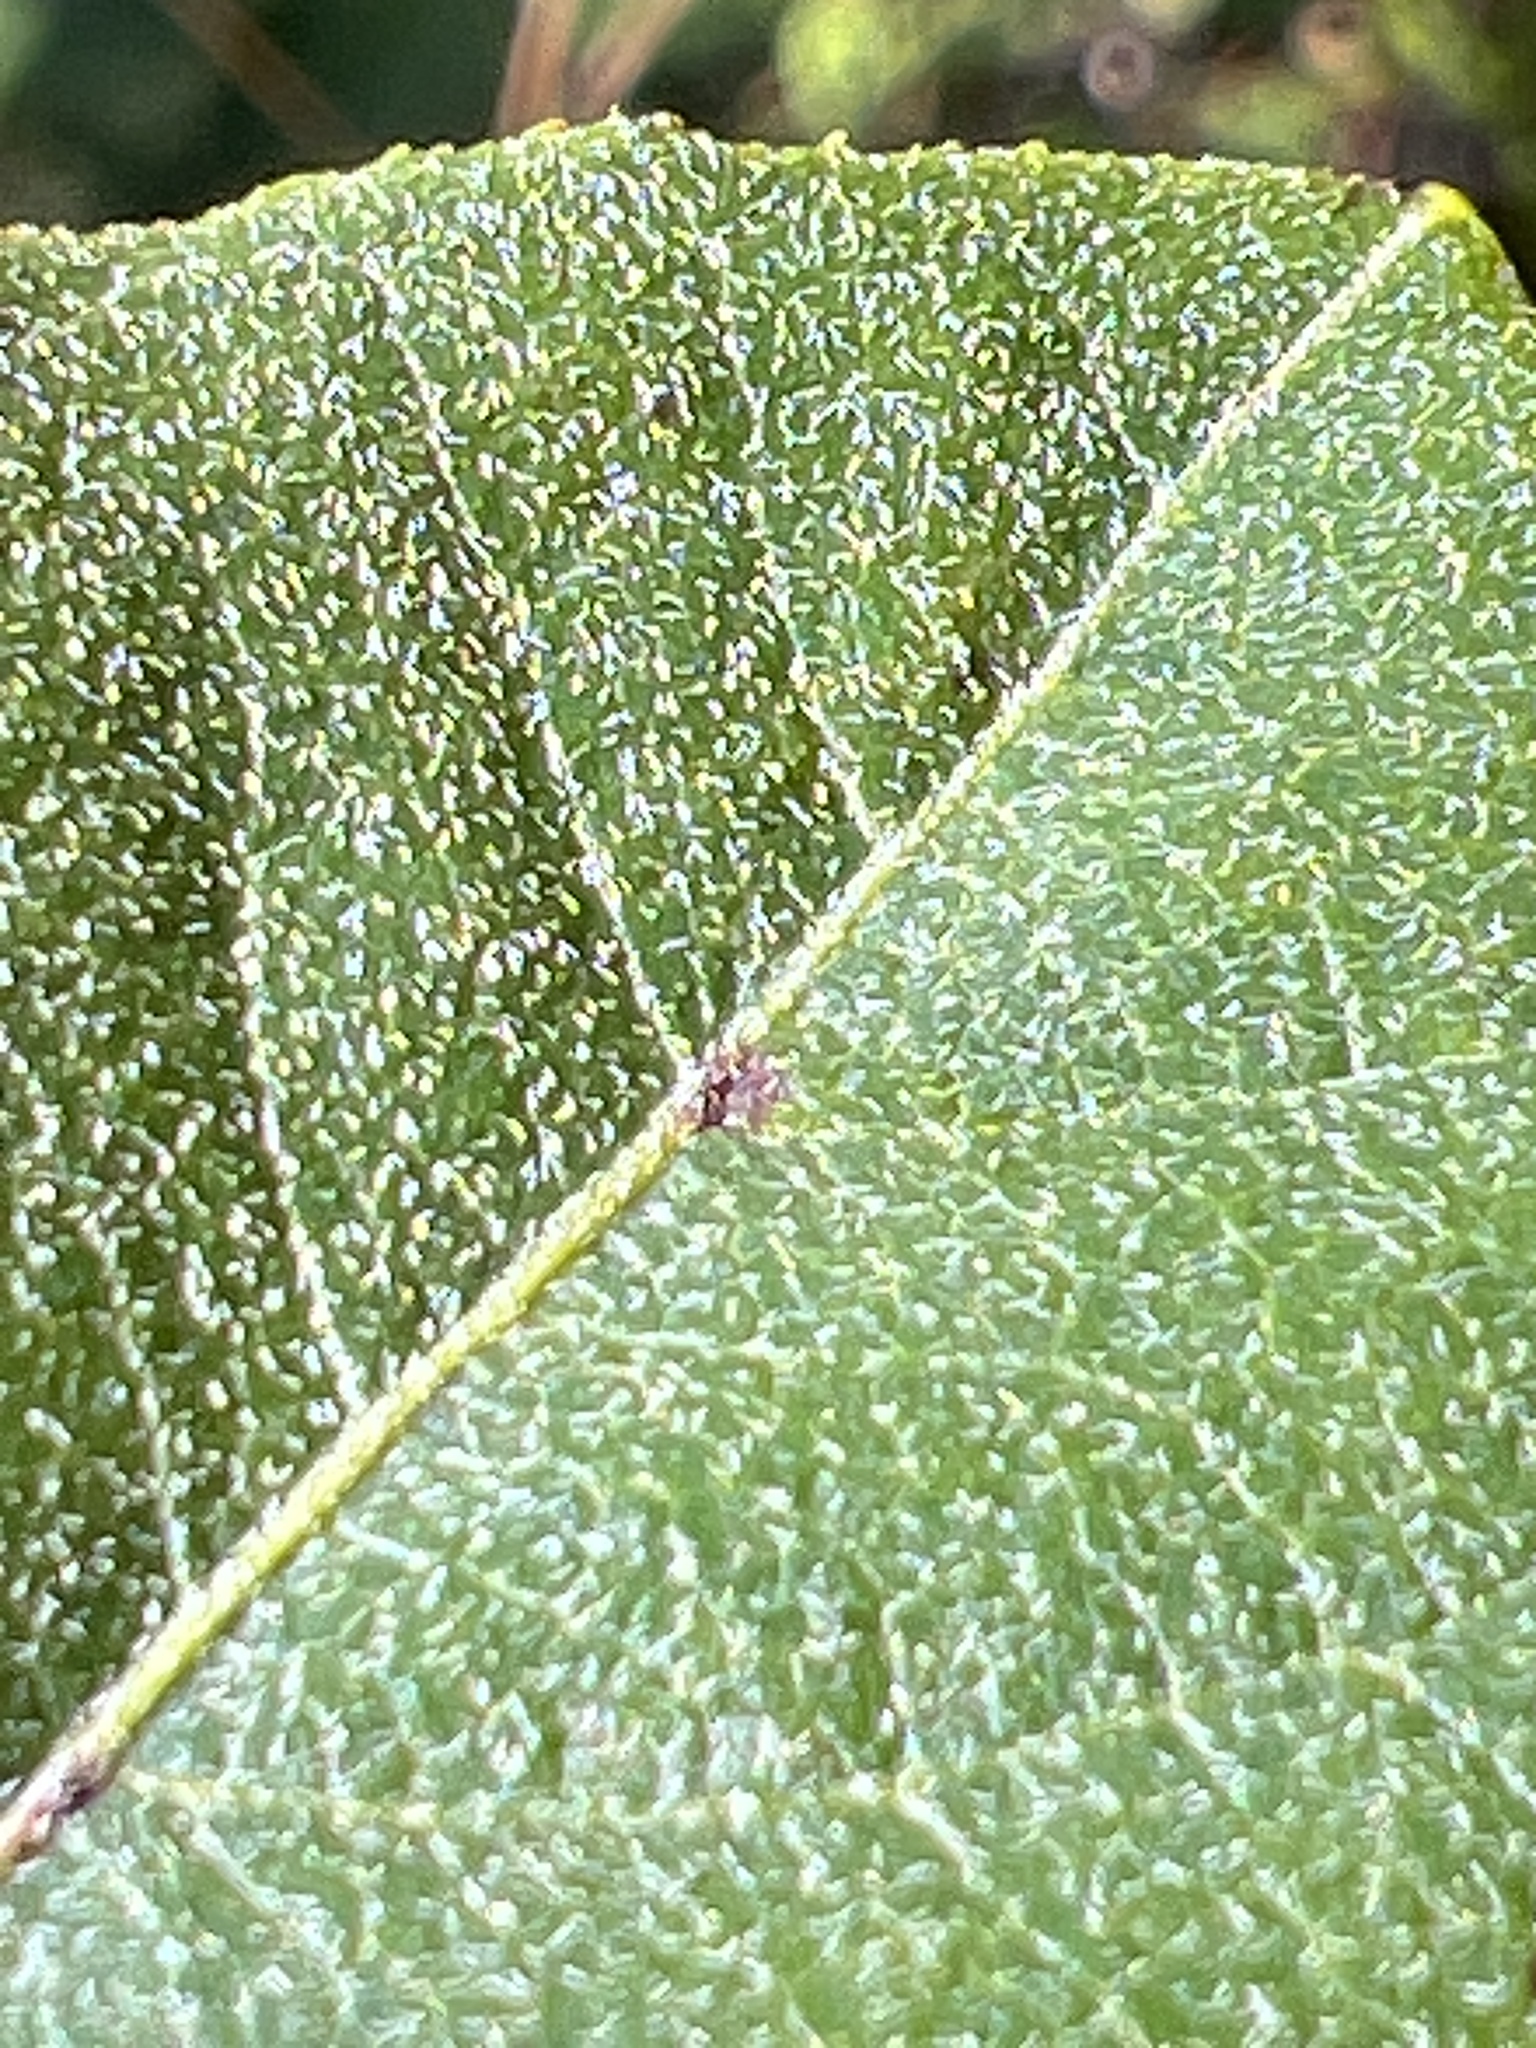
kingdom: Plantae
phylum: Tracheophyta
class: Magnoliopsida
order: Ericales
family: Ericaceae
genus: Lyonia
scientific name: Lyonia ligustrina
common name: Maleberry
